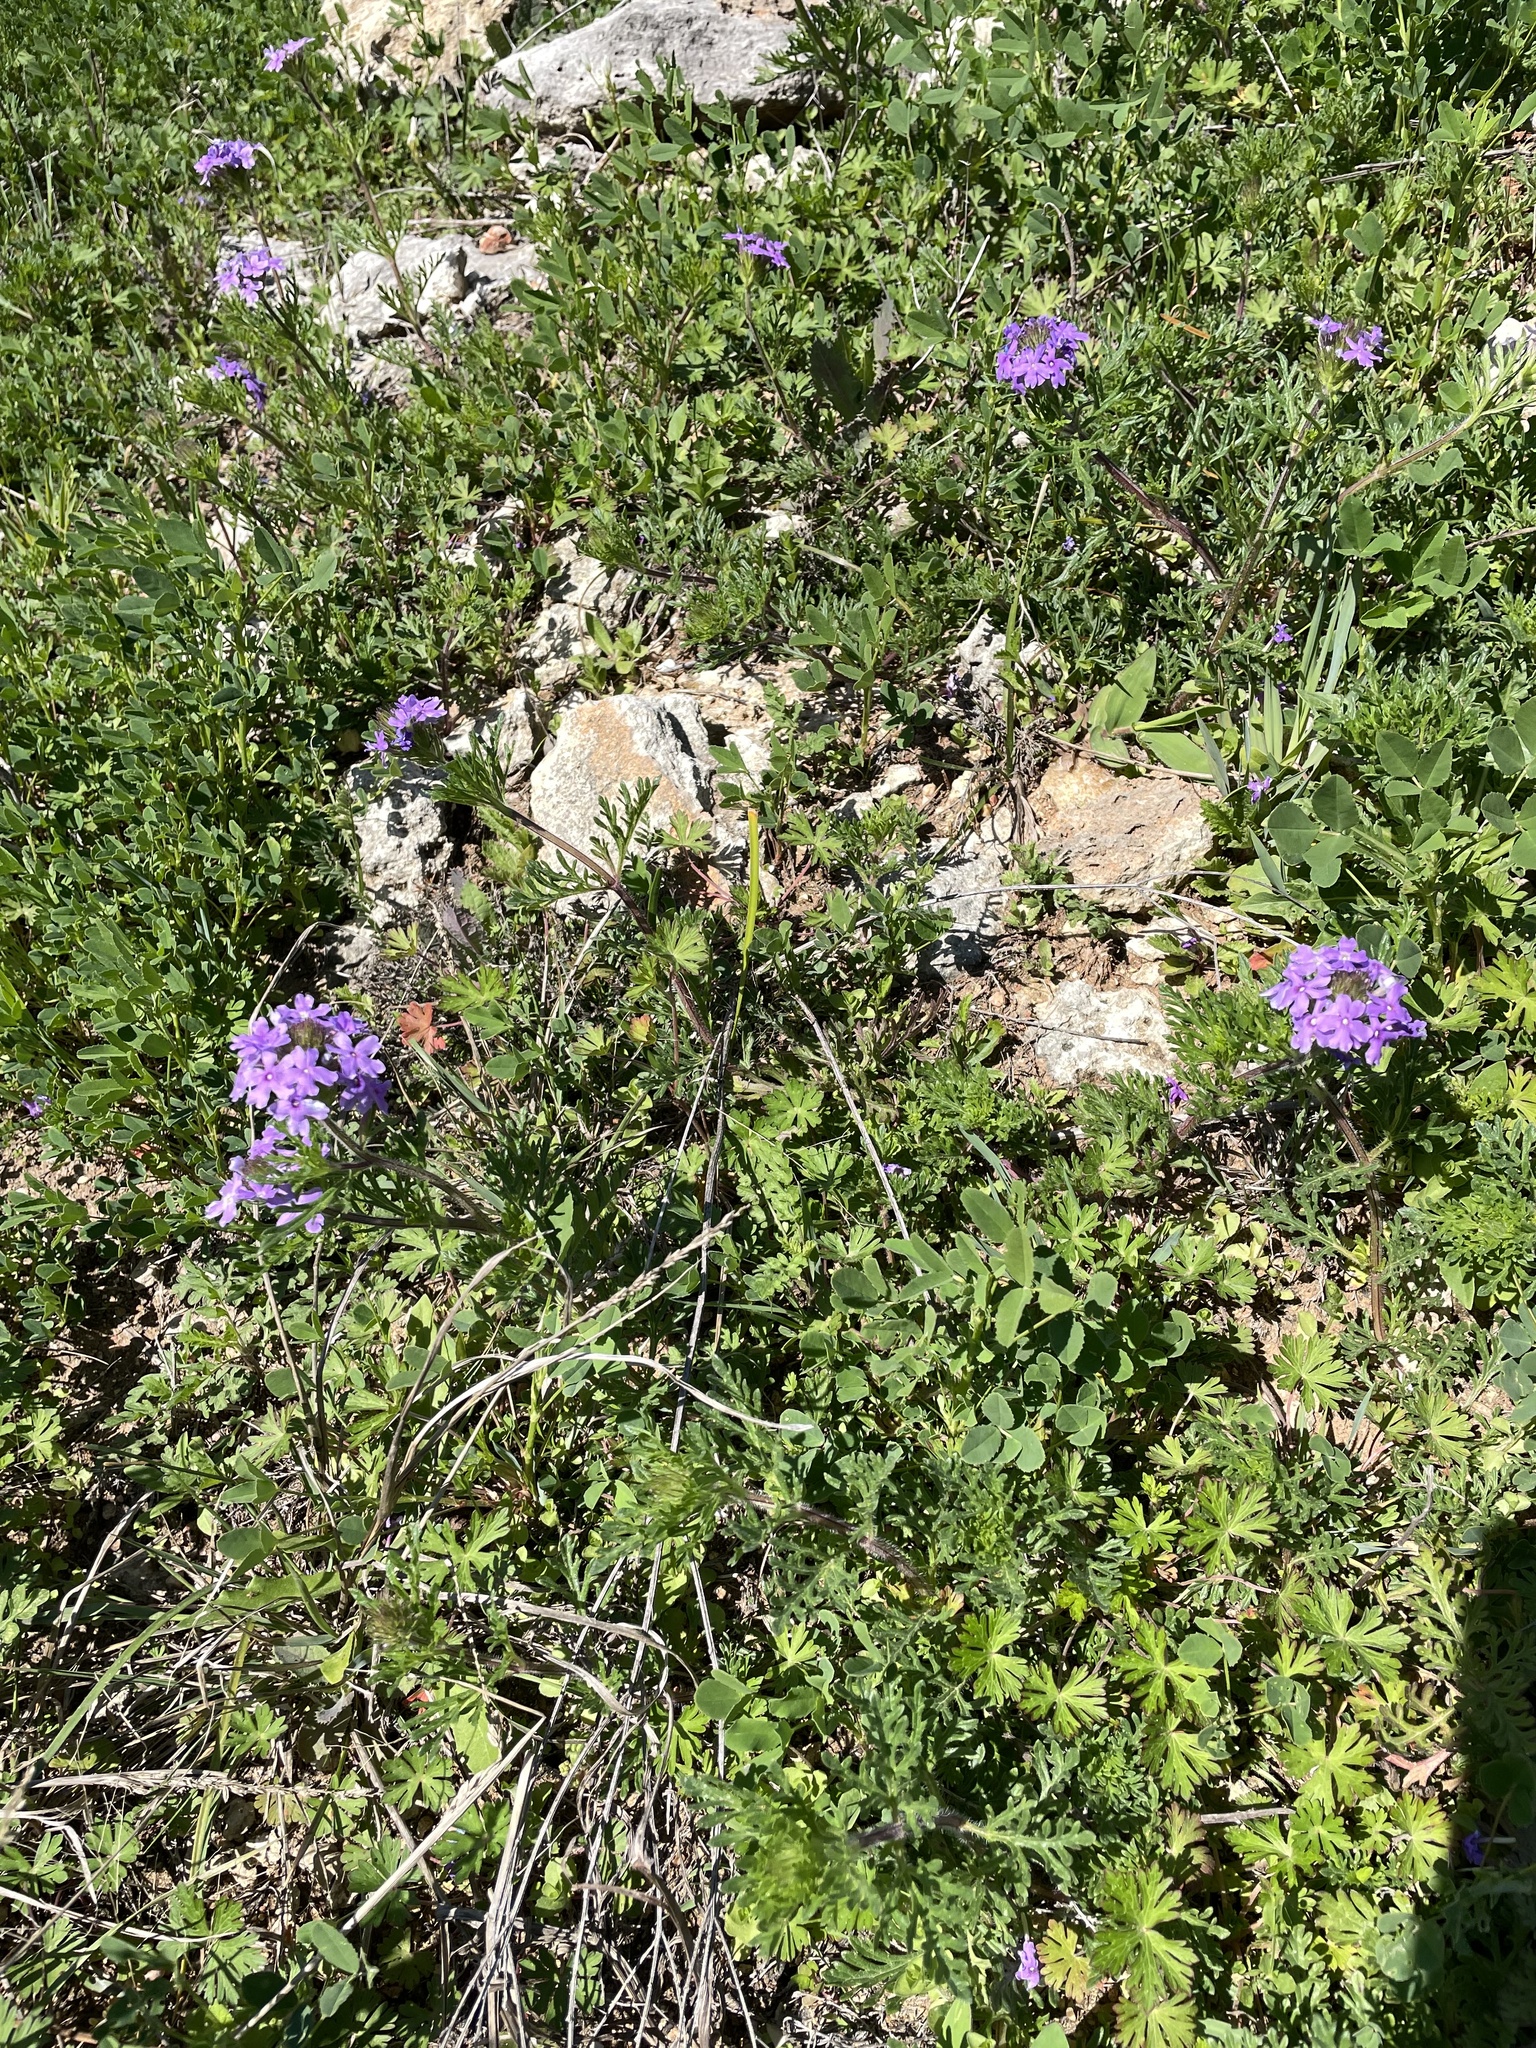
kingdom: Plantae
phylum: Tracheophyta
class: Magnoliopsida
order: Lamiales
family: Verbenaceae
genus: Verbena
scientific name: Verbena bipinnatifida
